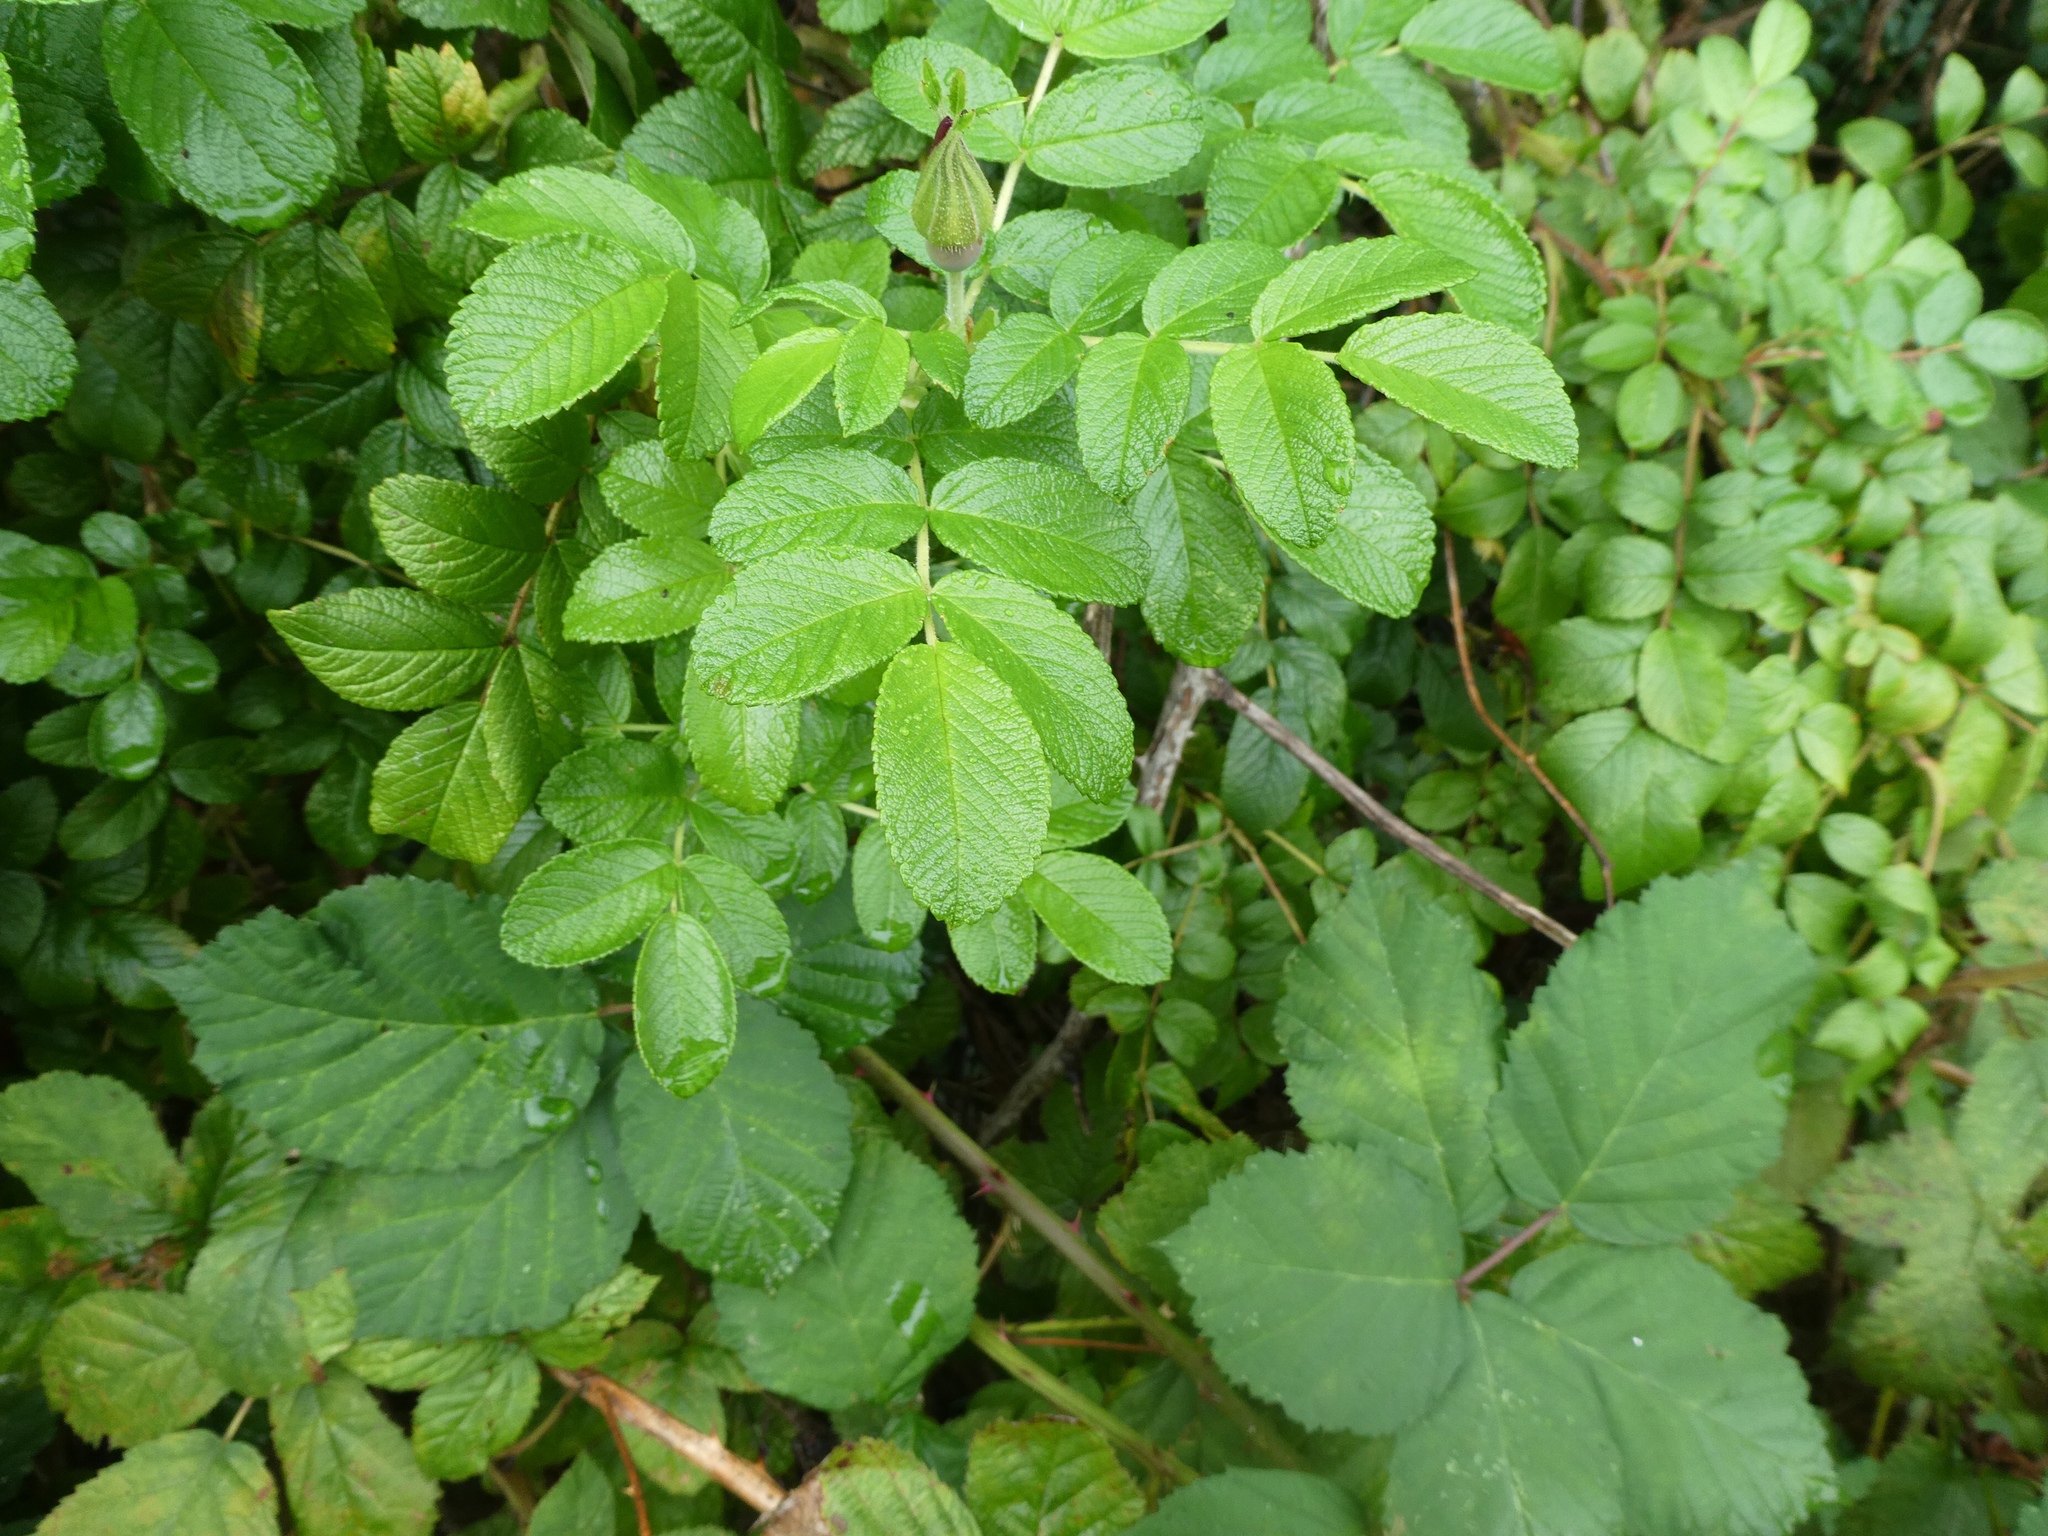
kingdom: Plantae
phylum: Tracheophyta
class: Magnoliopsida
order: Rosales
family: Rosaceae
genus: Rosa
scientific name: Rosa rugosa
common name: Japanese rose
